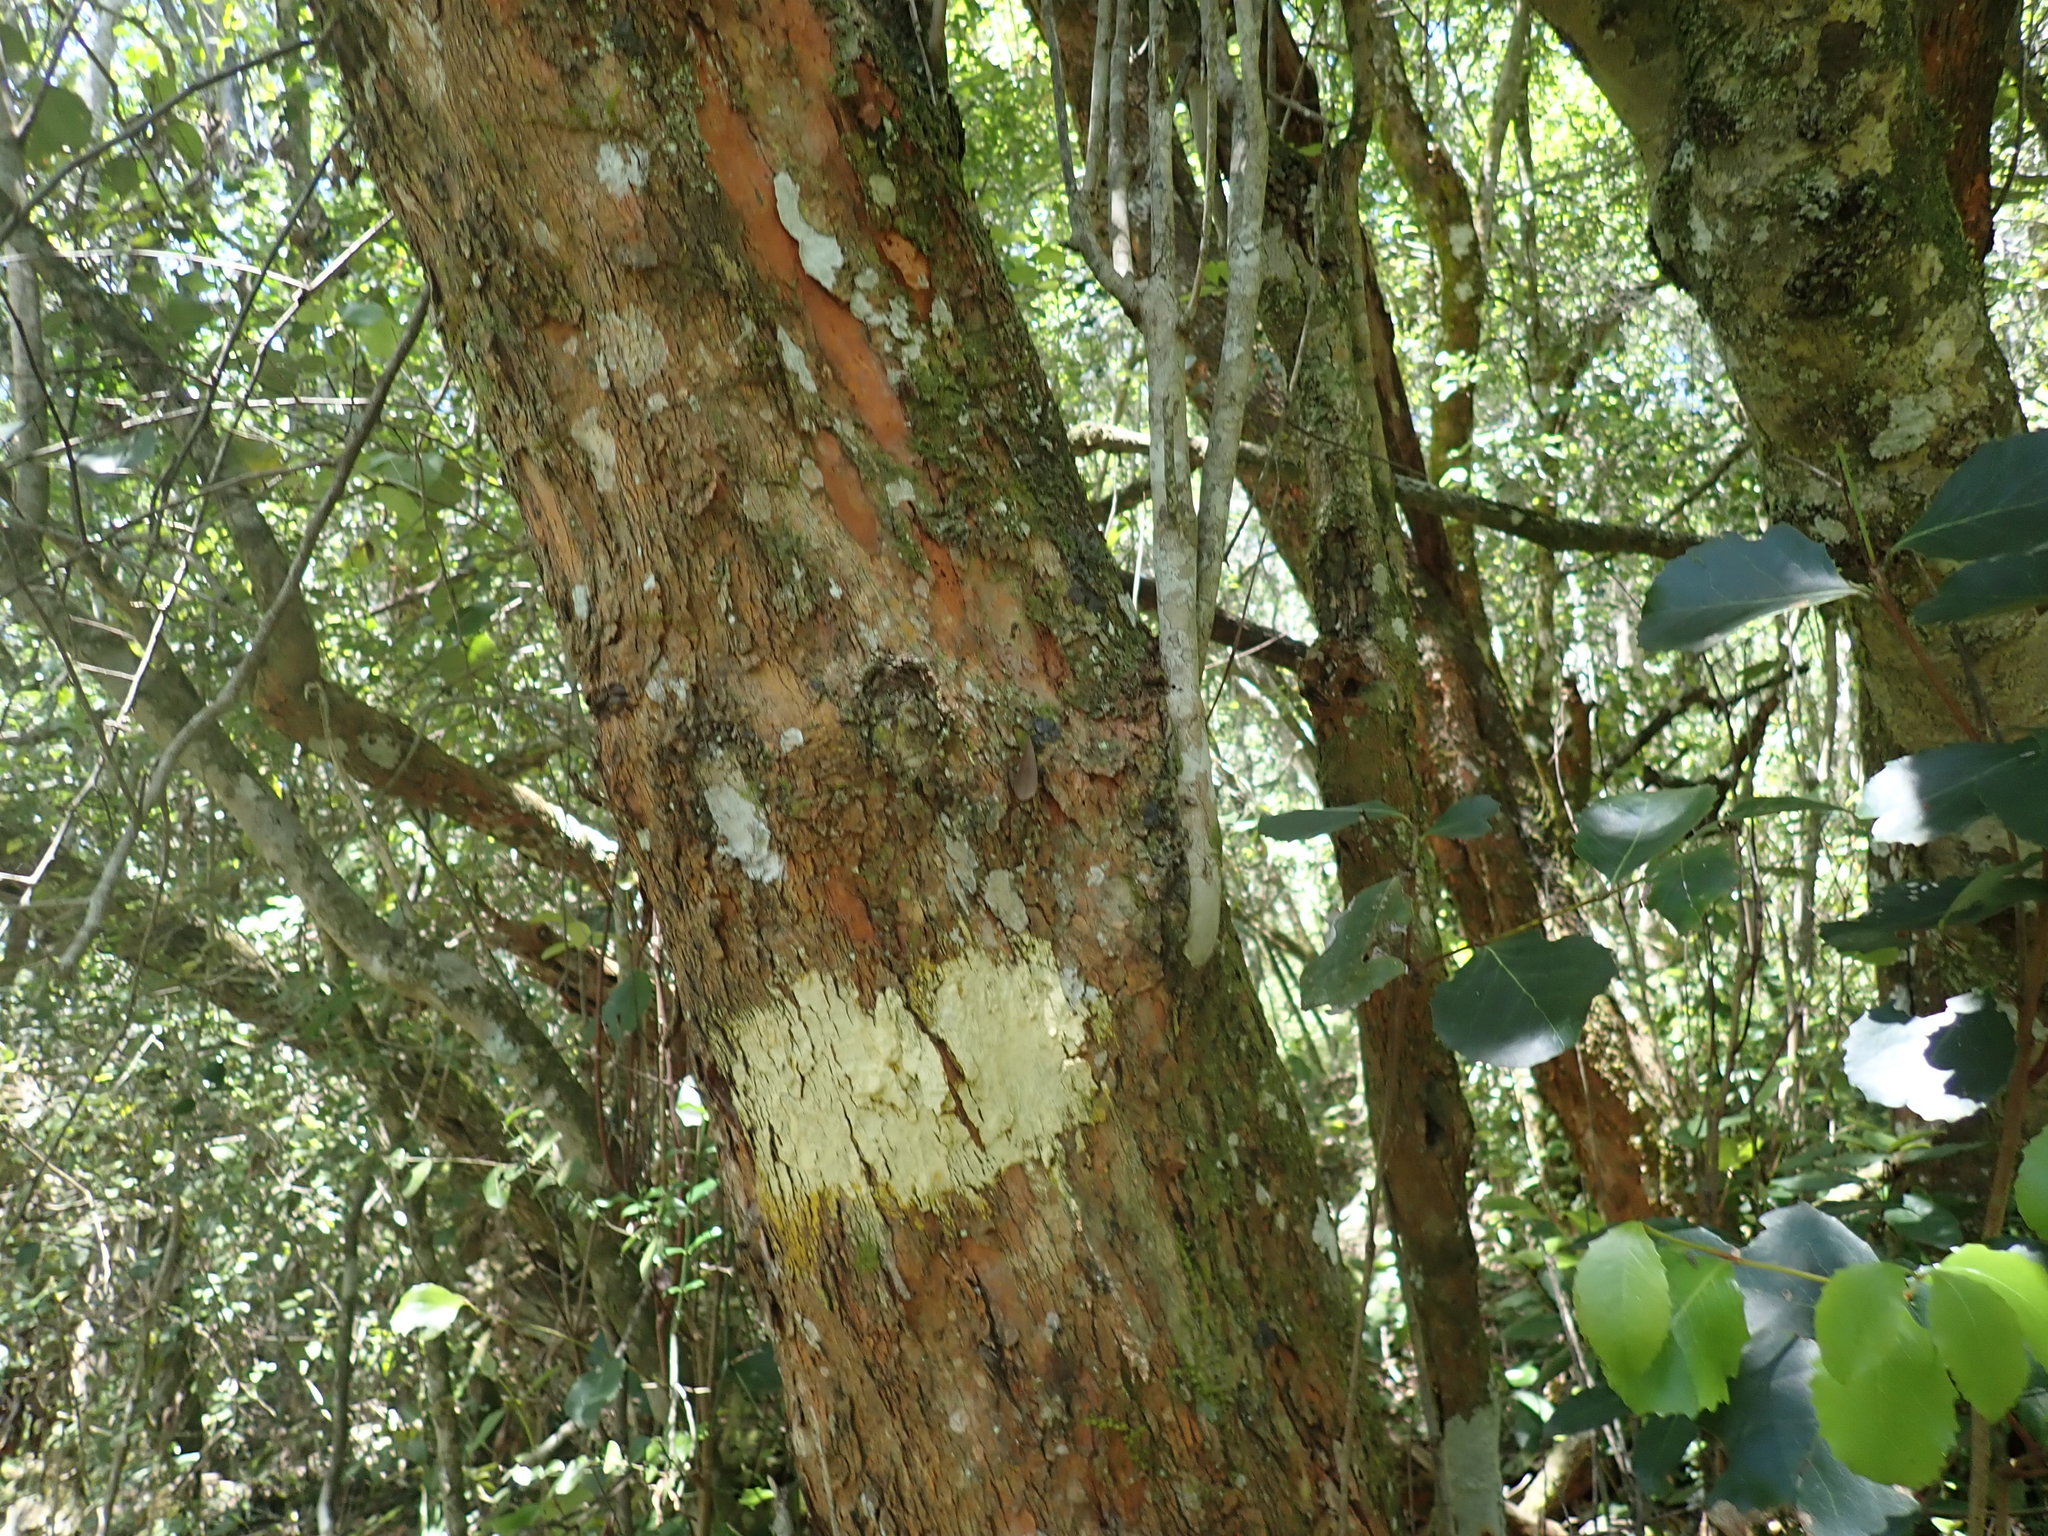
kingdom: Plantae
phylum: Tracheophyta
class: Magnoliopsida
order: Celastrales
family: Celastraceae
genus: Cassine
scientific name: Cassine peragua
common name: Cape saffron
